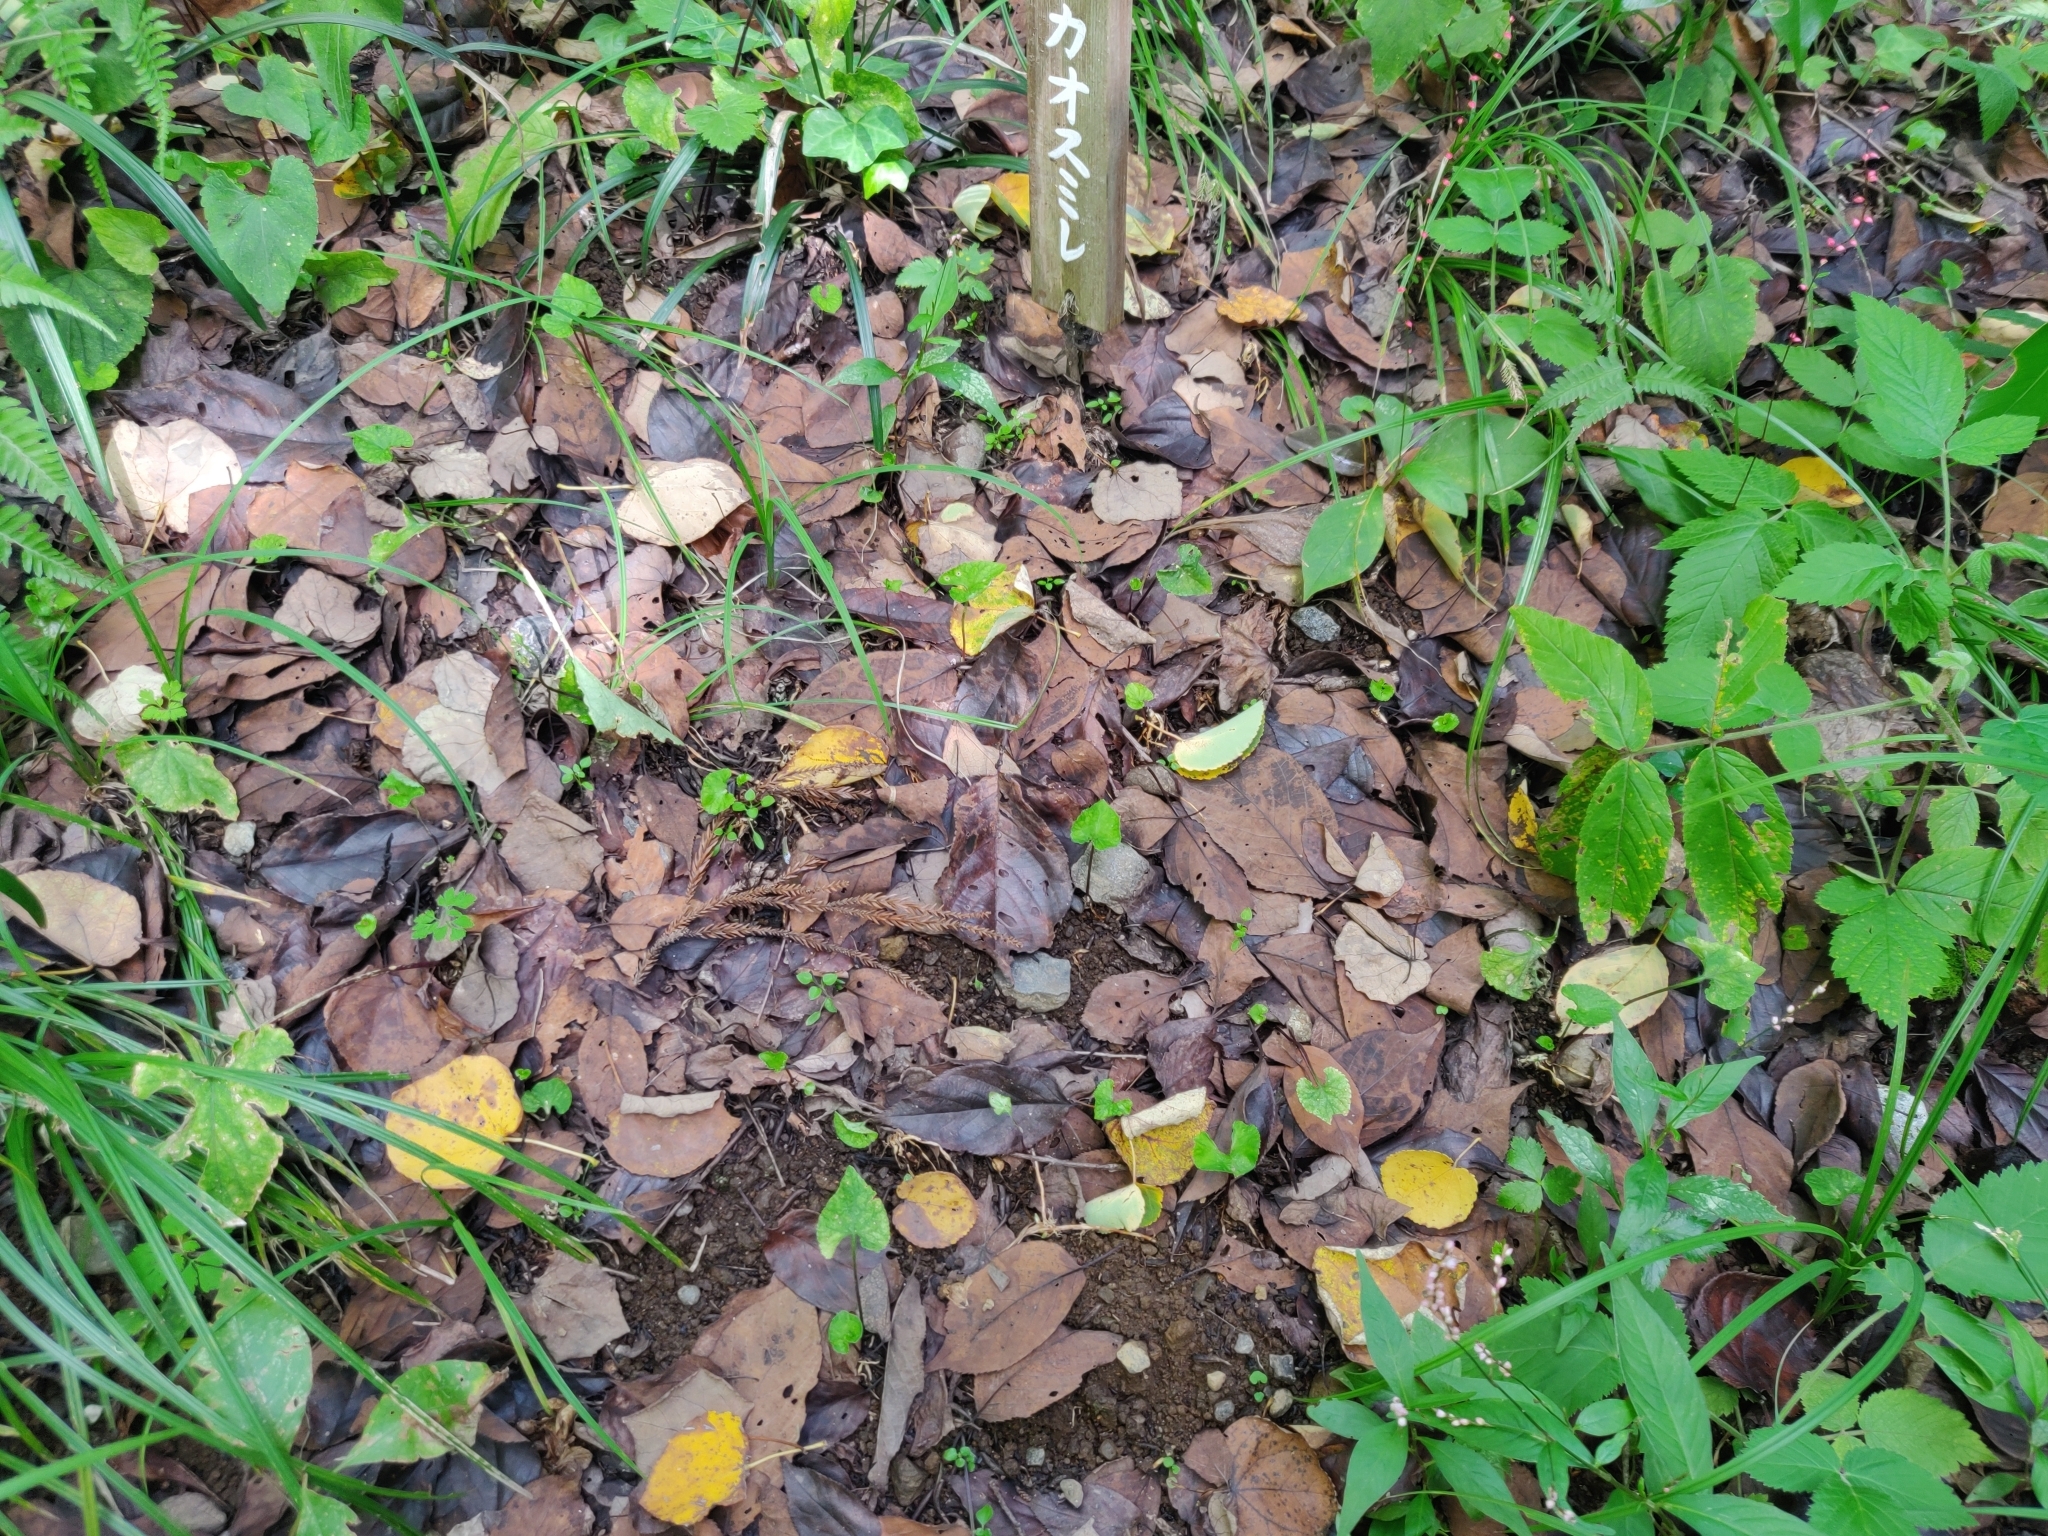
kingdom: Plantae
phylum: Tracheophyta
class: Magnoliopsida
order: Ericales
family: Theaceae
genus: Camellia
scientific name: Camellia japonica
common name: Camellia
